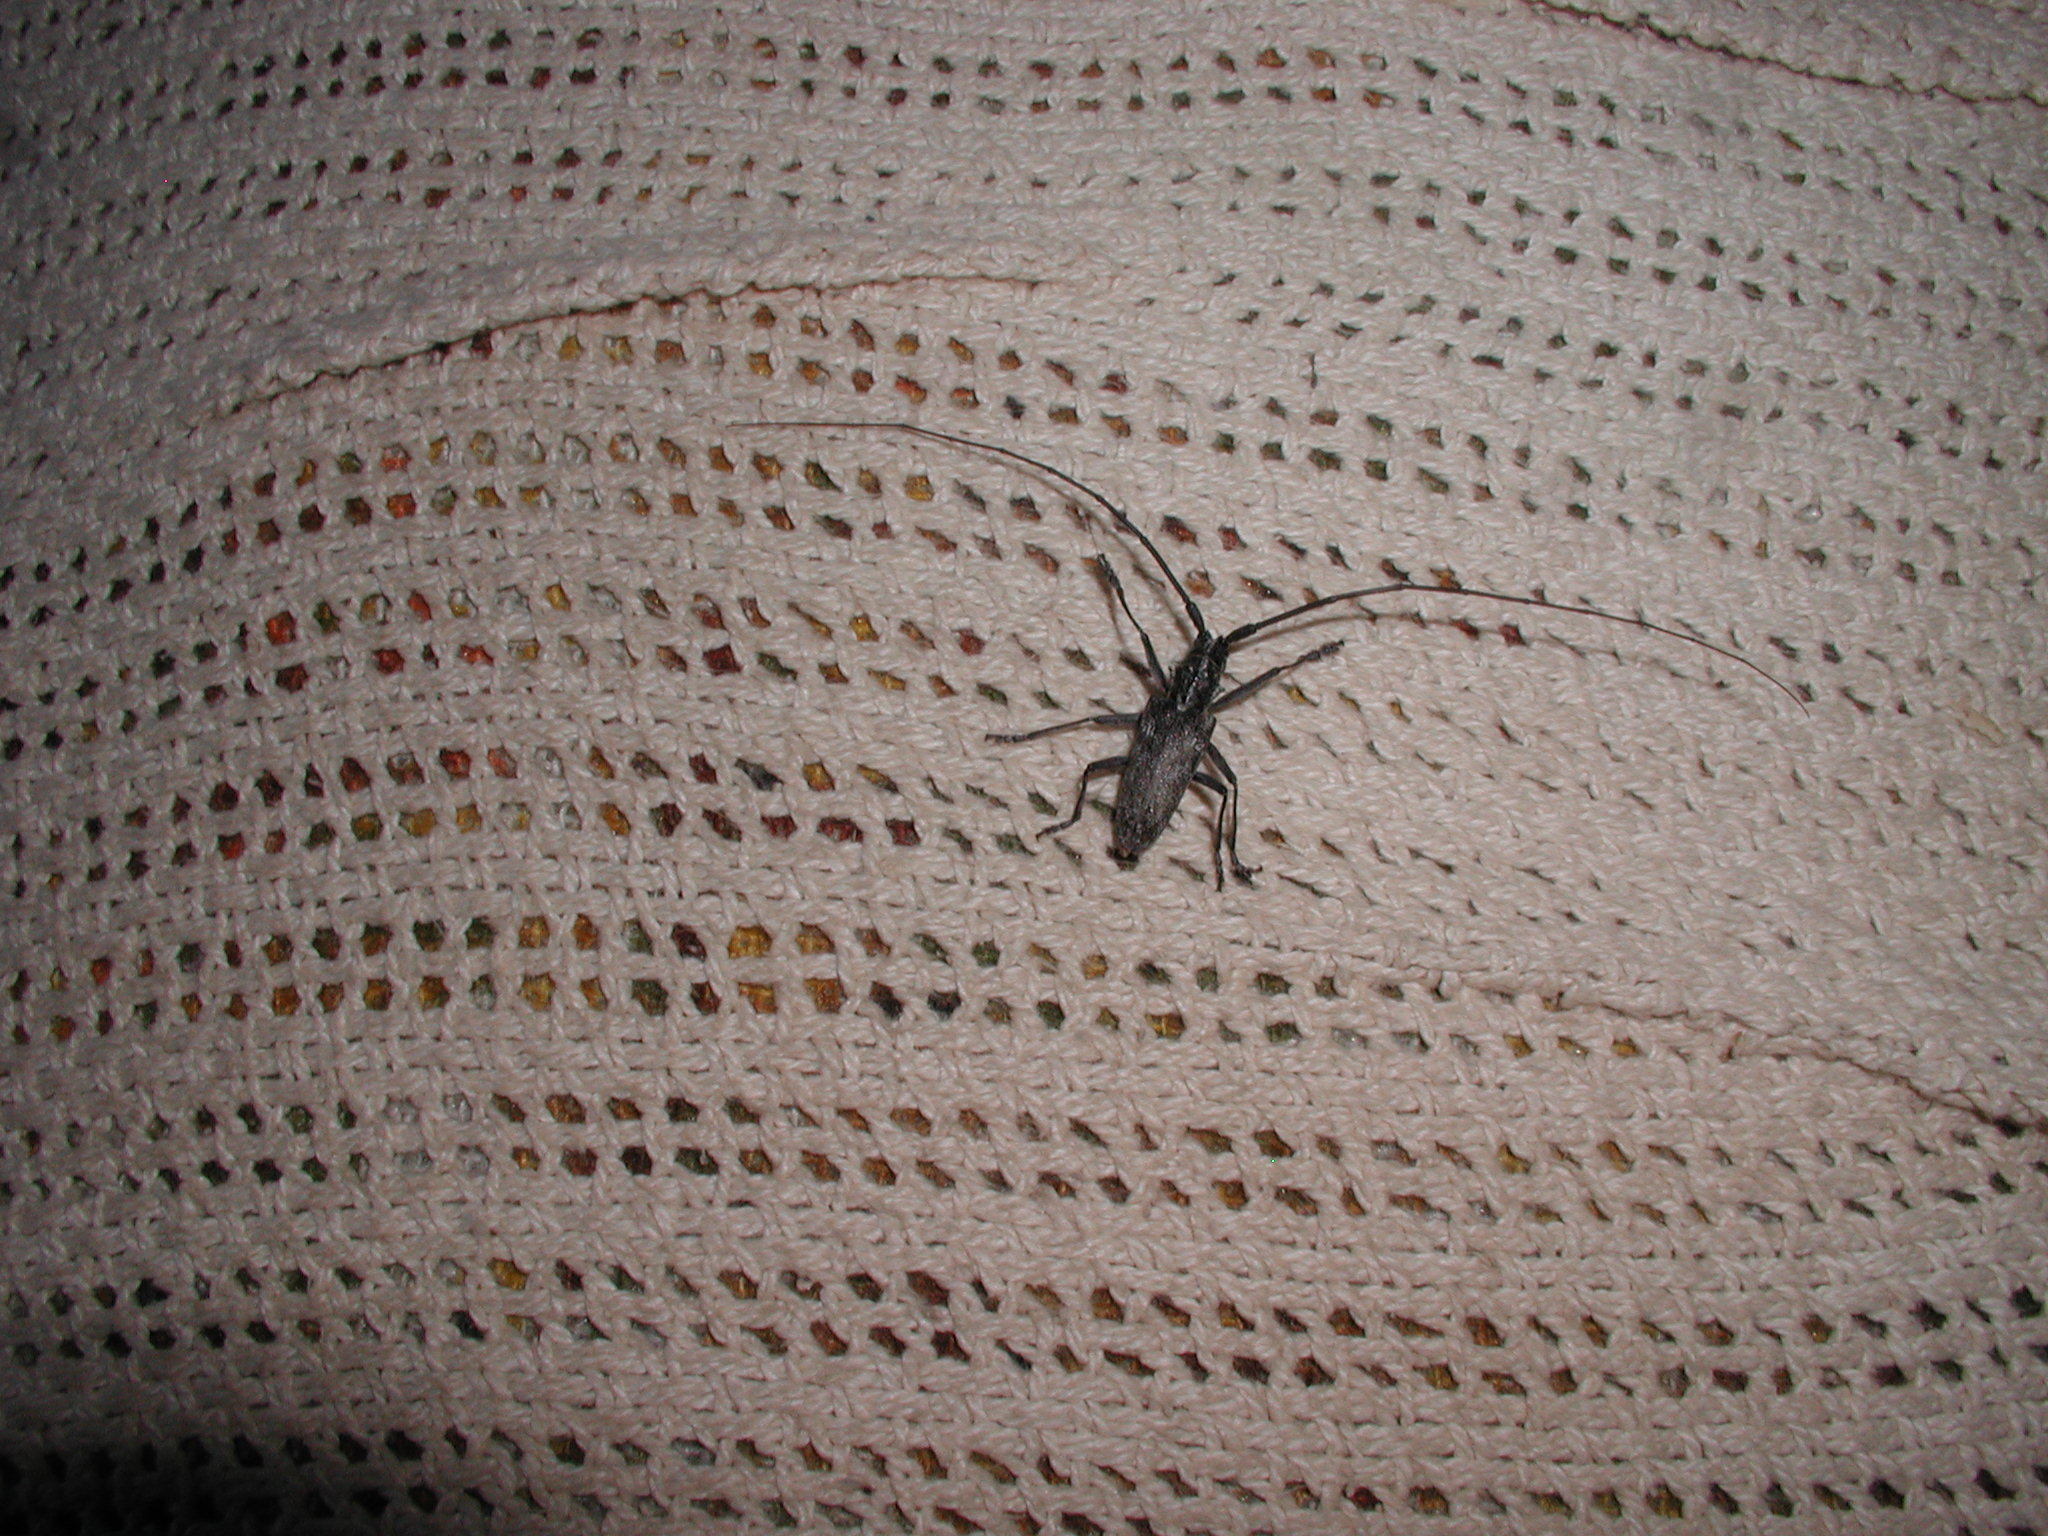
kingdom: Animalia
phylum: Arthropoda
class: Insecta
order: Coleoptera
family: Cerambycidae
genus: Monochamus
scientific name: Monochamus clamator
